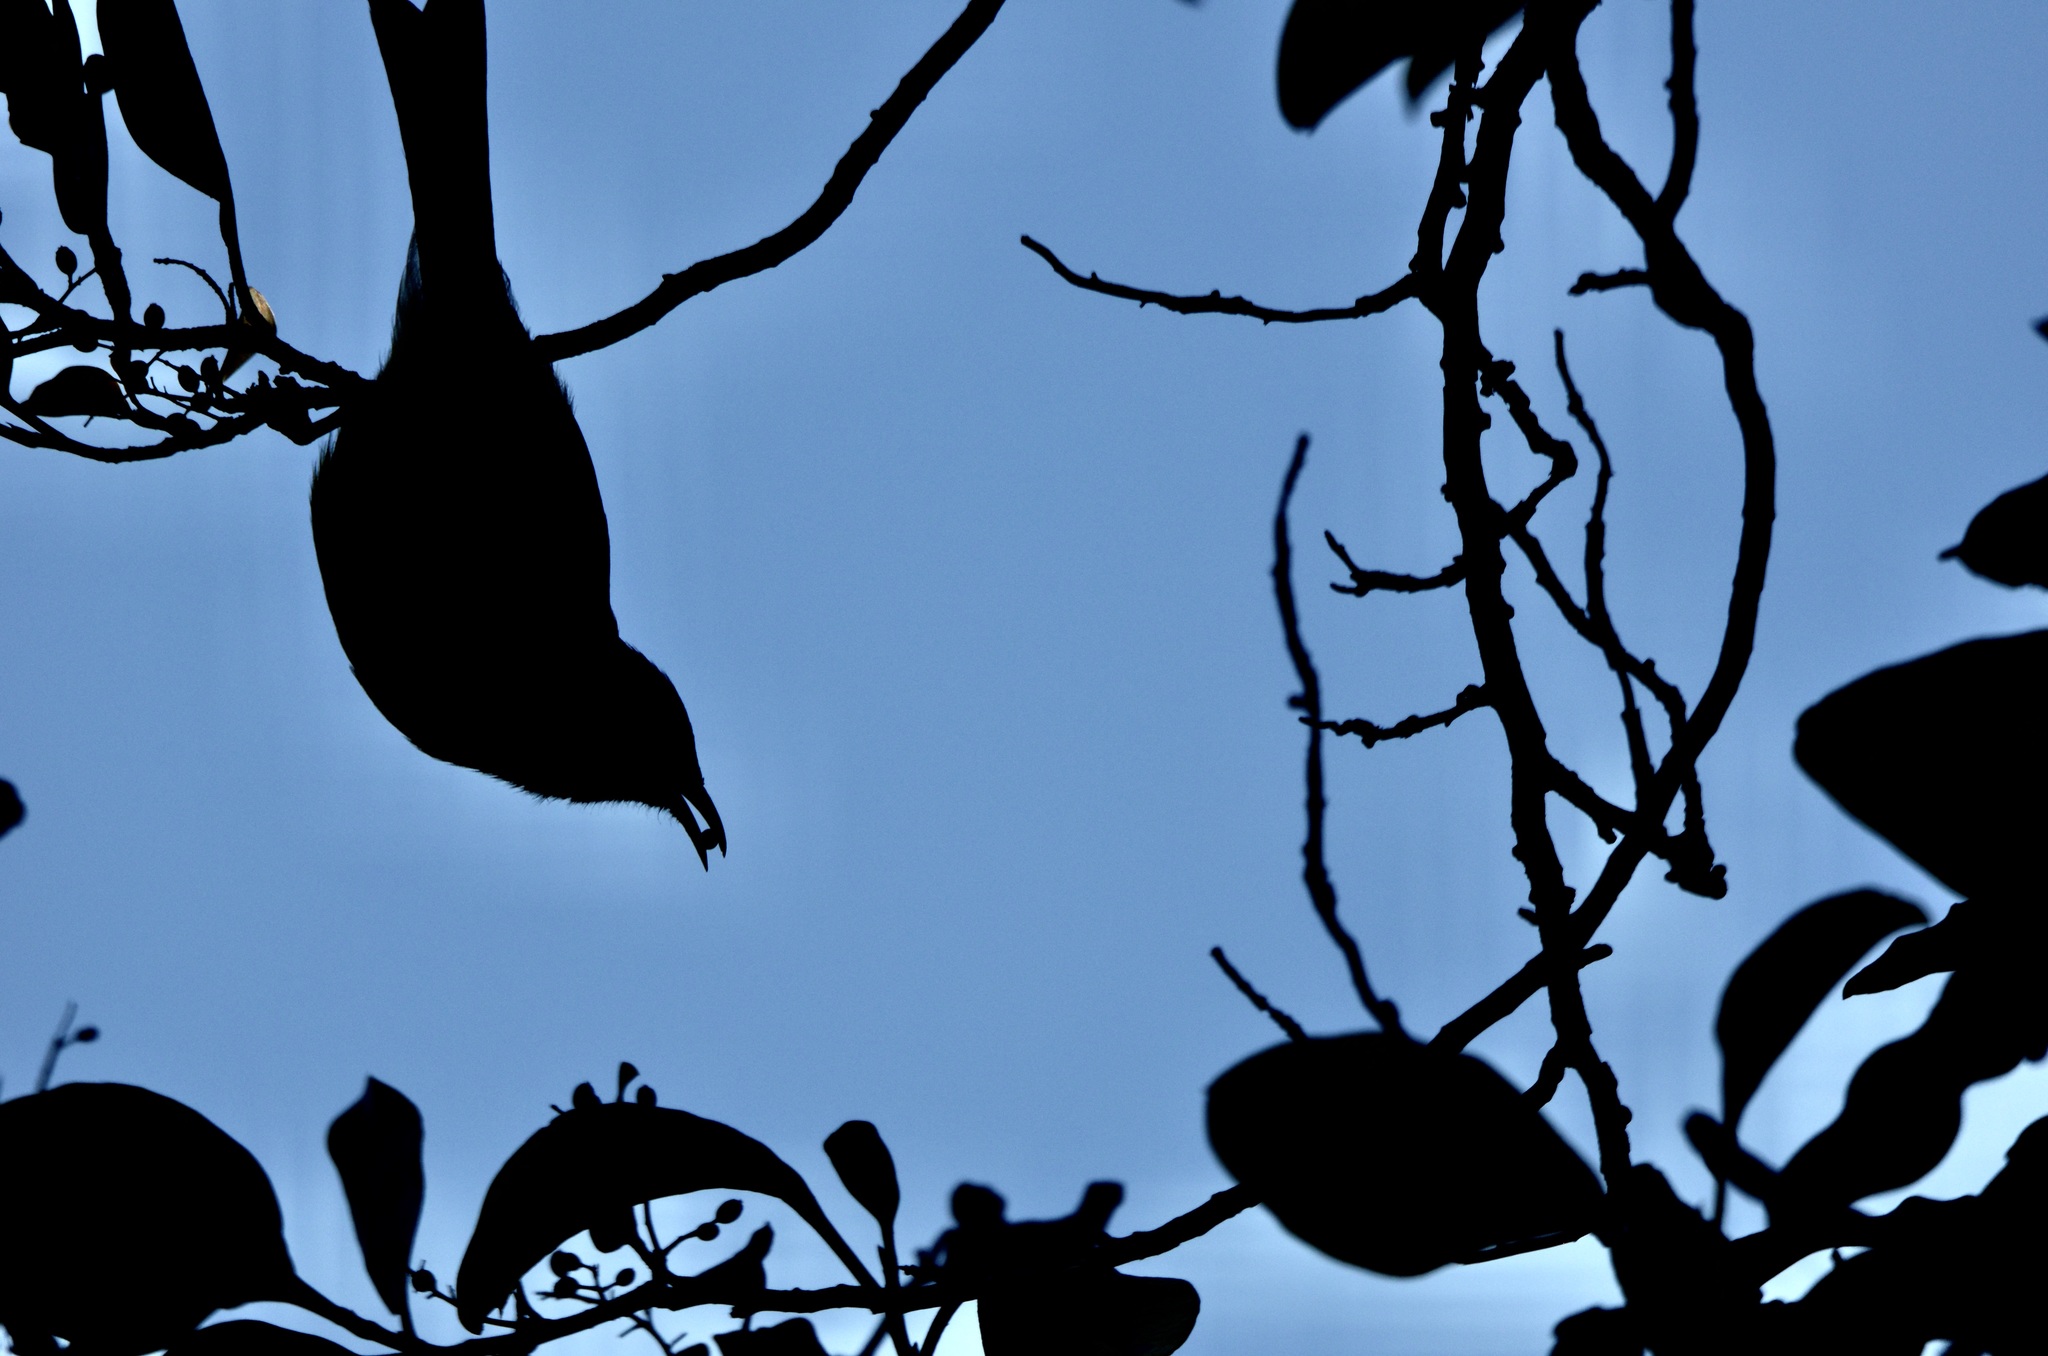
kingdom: Animalia
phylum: Chordata
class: Aves
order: Passeriformes
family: Meliphagidae
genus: Anthornis
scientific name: Anthornis melanura
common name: New zealand bellbird
